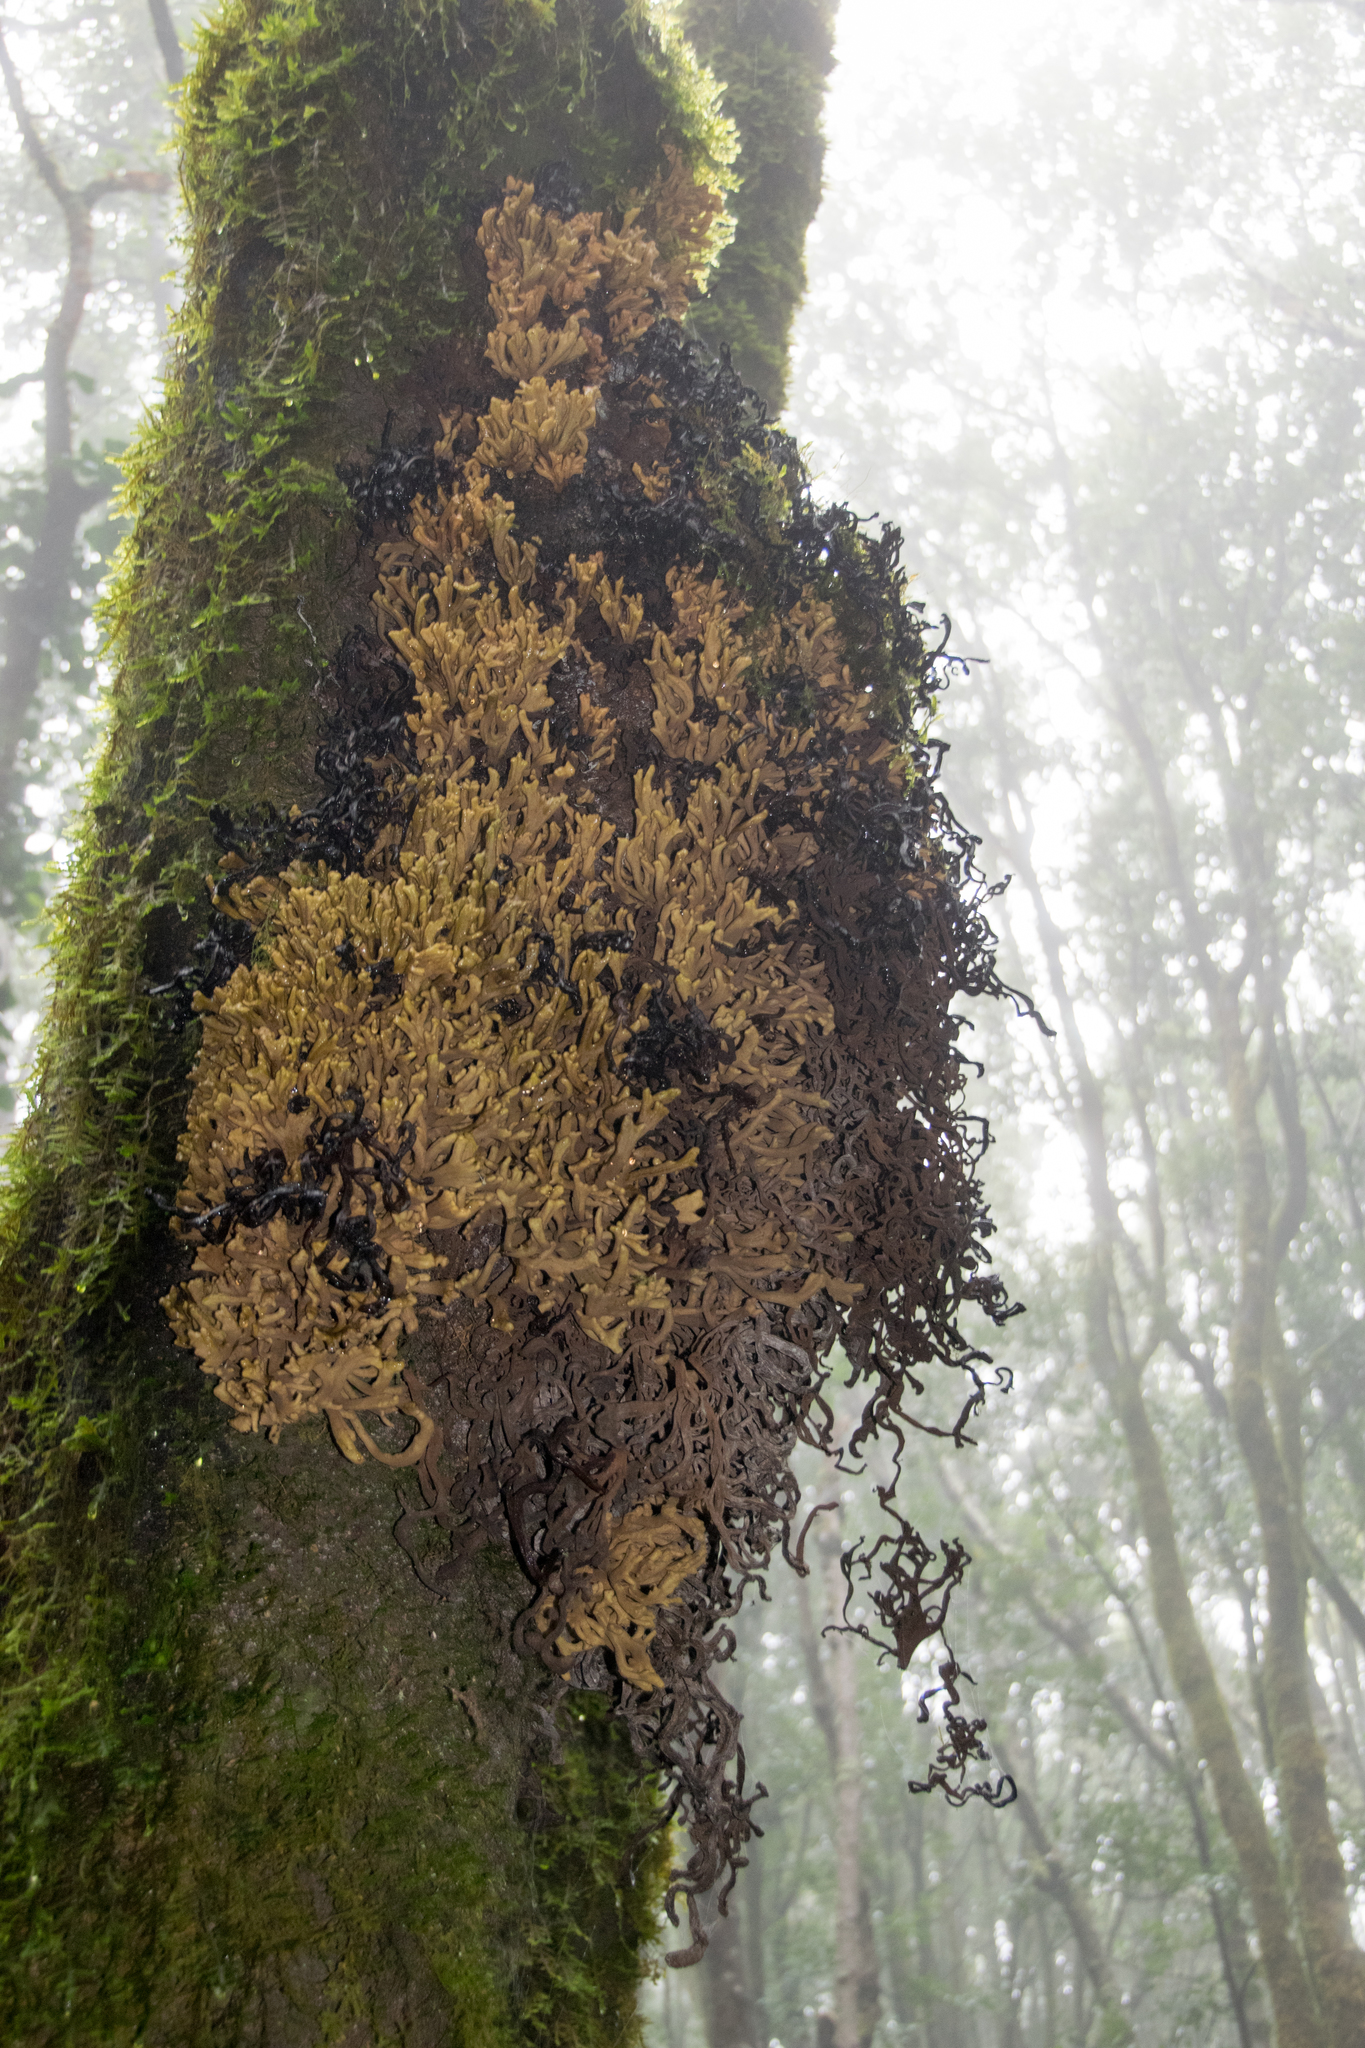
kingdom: Fungi
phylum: Basidiomycota
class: Exobasidiomycetes
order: Exobasidiales
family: Laurobasidiaceae
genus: Laurobasidium
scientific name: Laurobasidium lauri
